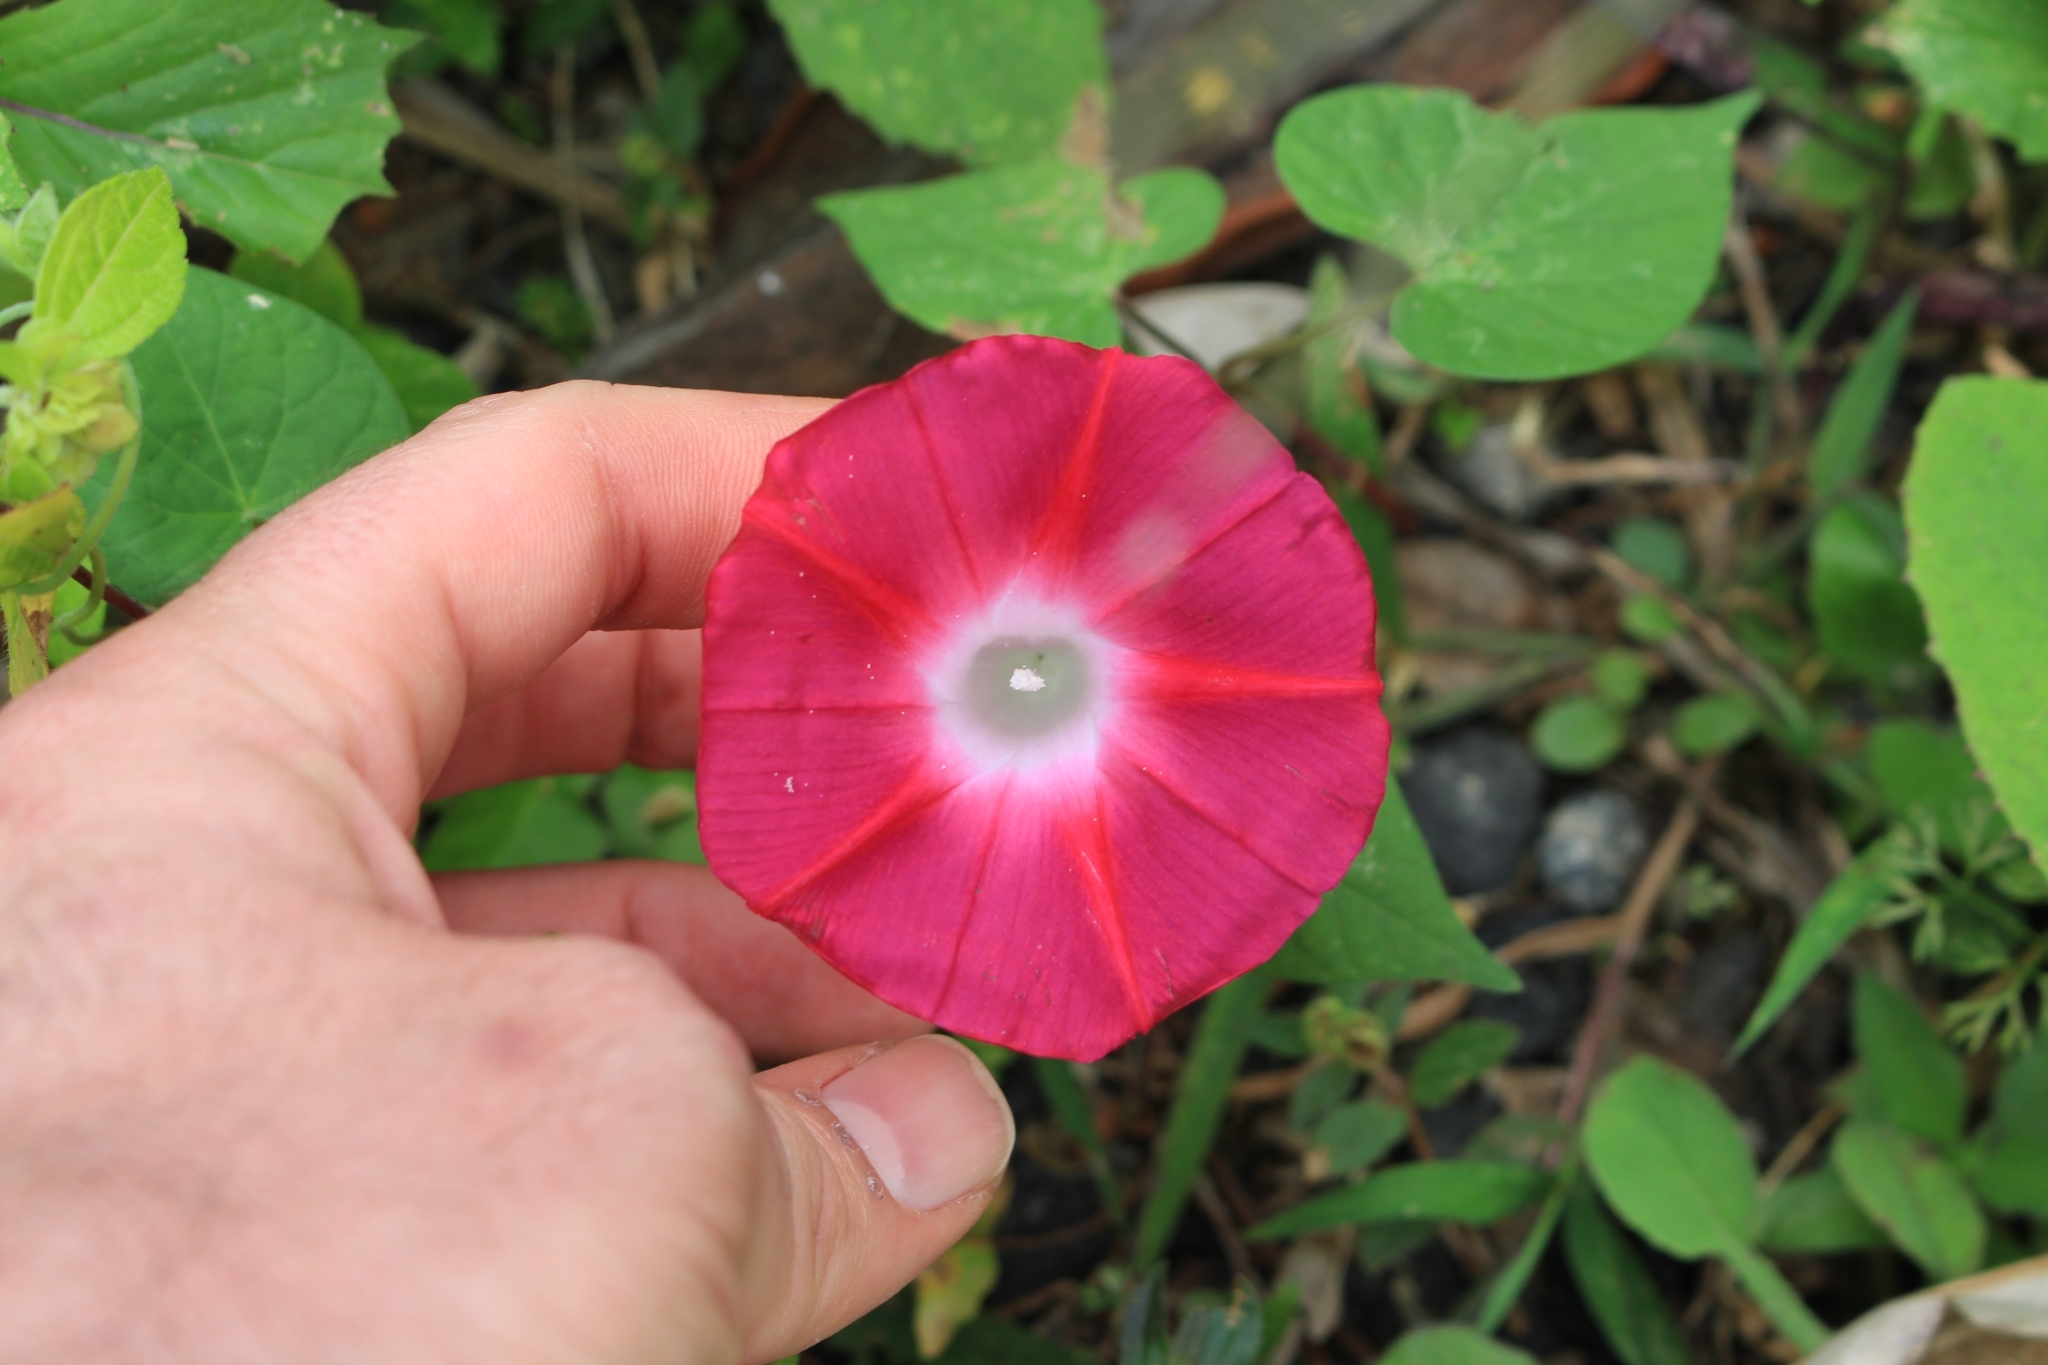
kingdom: Plantae
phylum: Tracheophyta
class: Magnoliopsida
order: Solanales
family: Convolvulaceae
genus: Ipomoea
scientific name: Ipomoea purpurea
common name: Common morning-glory
